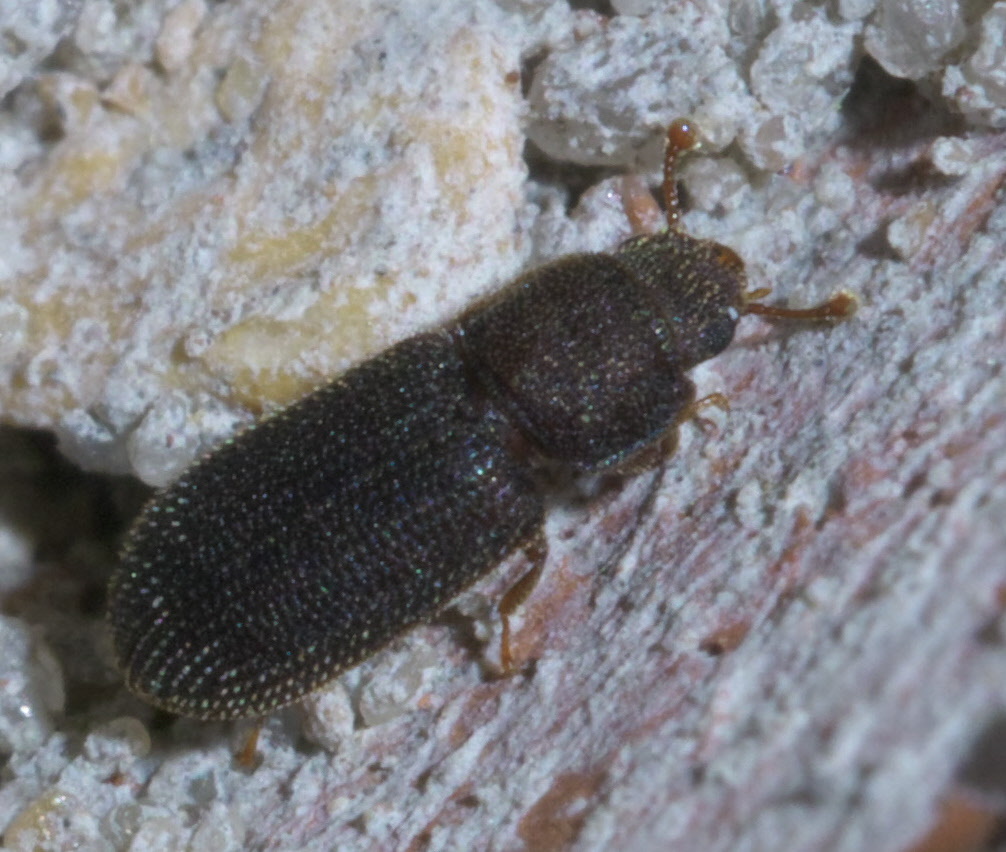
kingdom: Animalia
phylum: Arthropoda
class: Insecta
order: Coleoptera
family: Zopheridae
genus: Synchita
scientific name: Synchita fuliginosa
